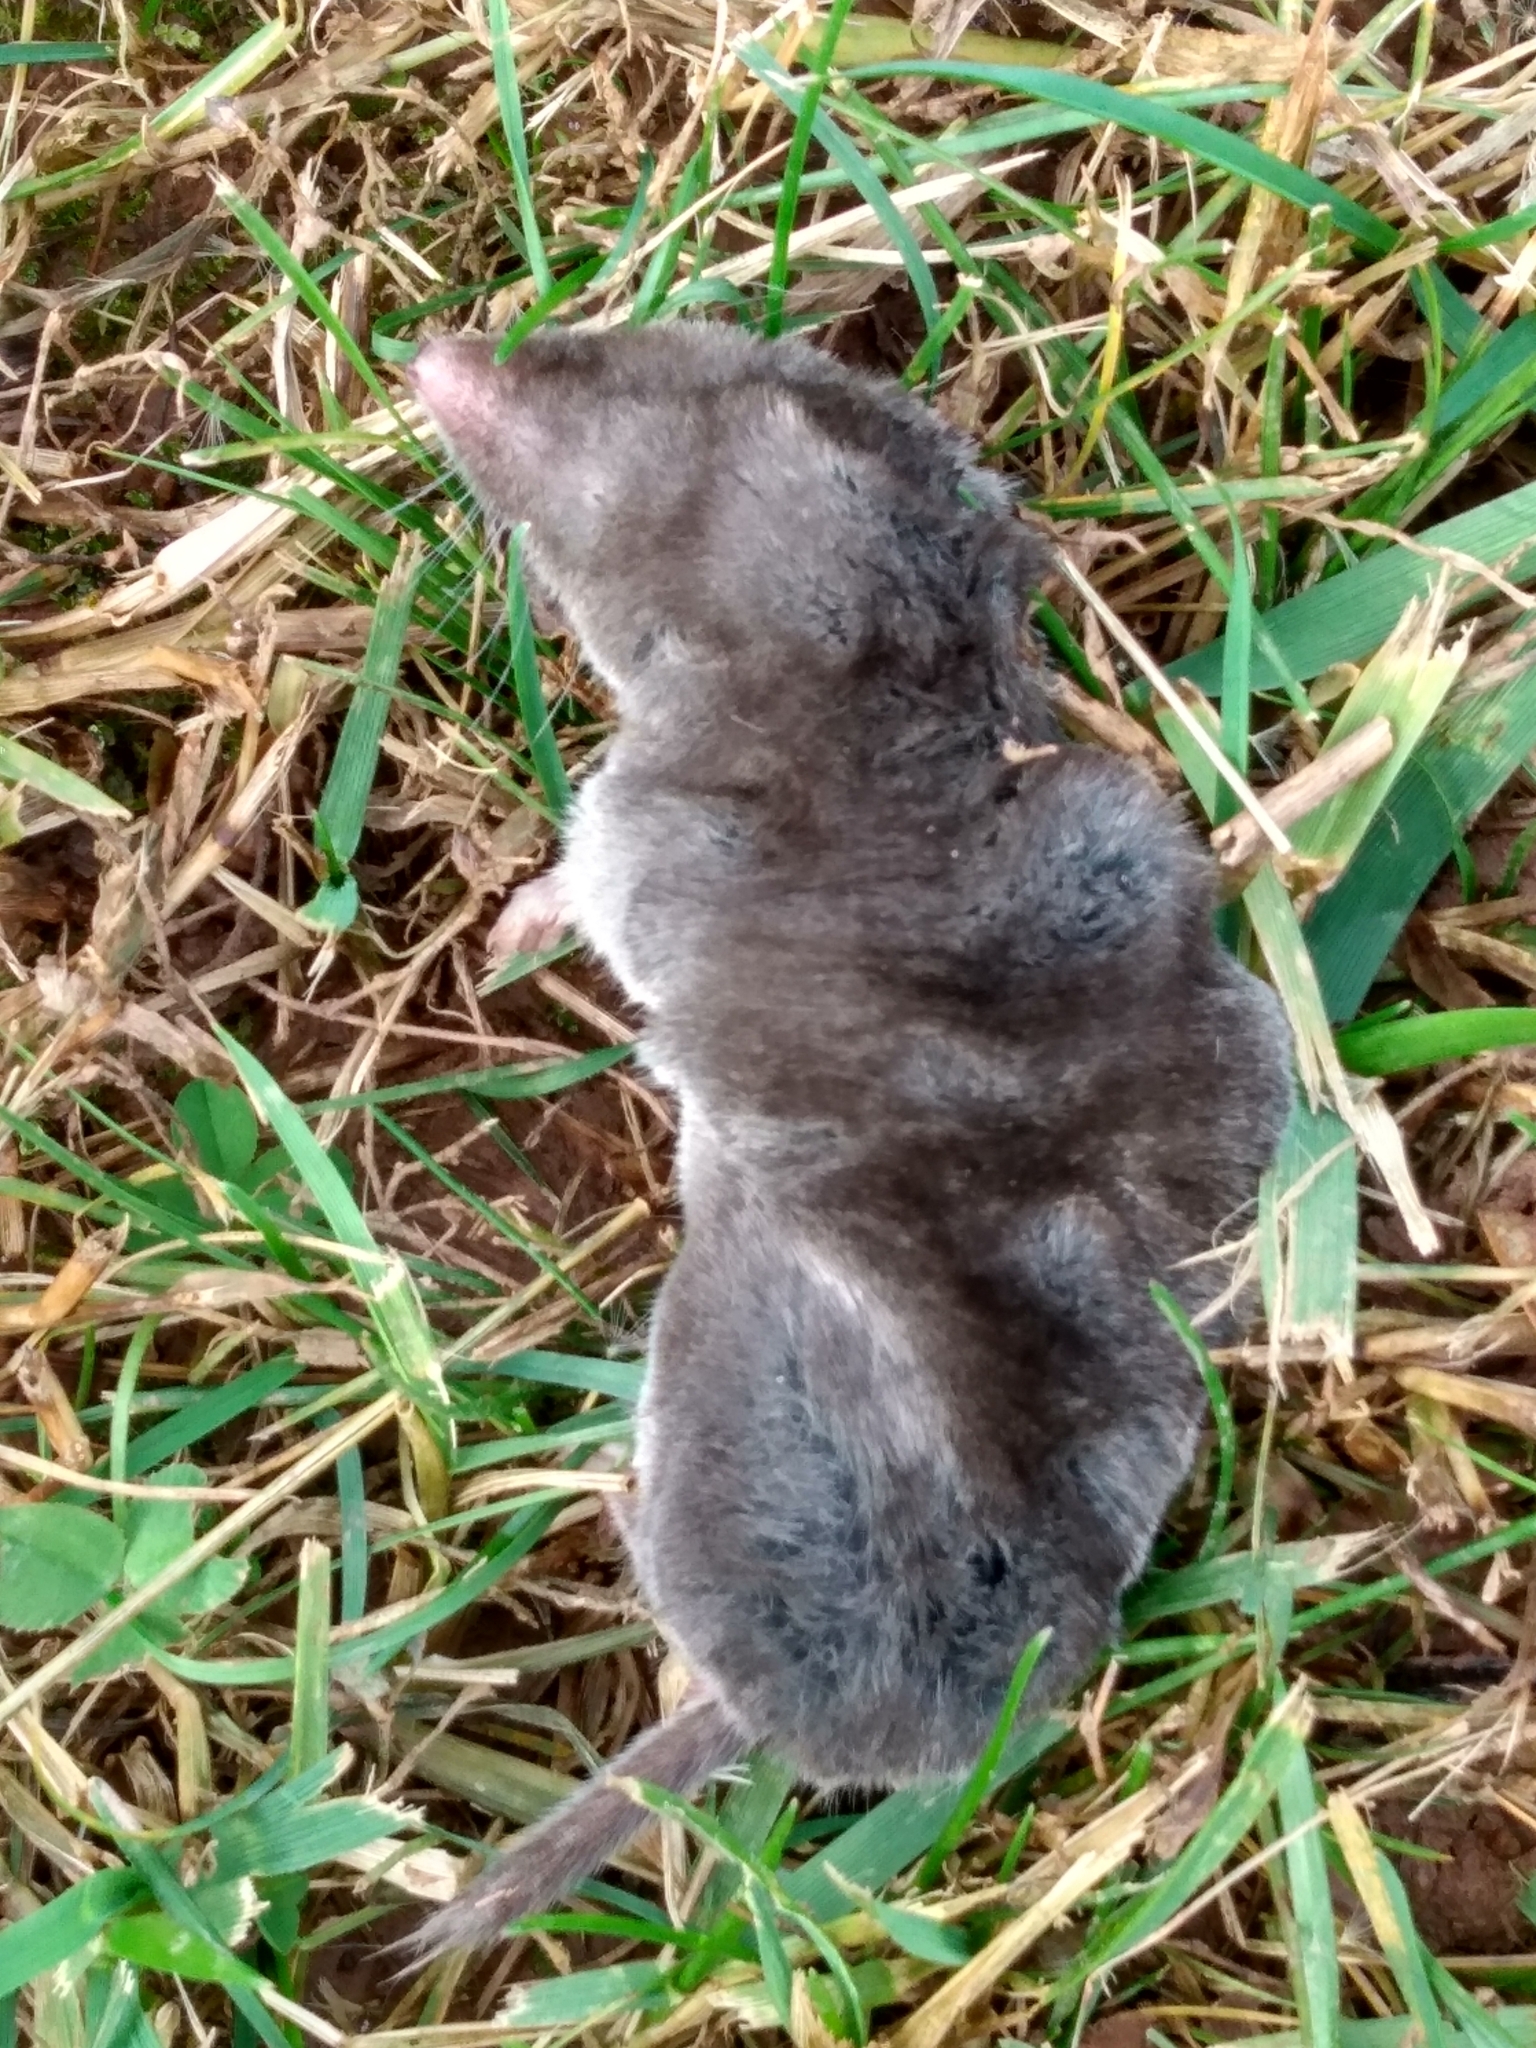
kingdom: Animalia
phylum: Chordata
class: Mammalia
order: Soricomorpha
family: Soricidae
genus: Blarina
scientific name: Blarina brevicauda
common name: Northern short-tailed shrew
